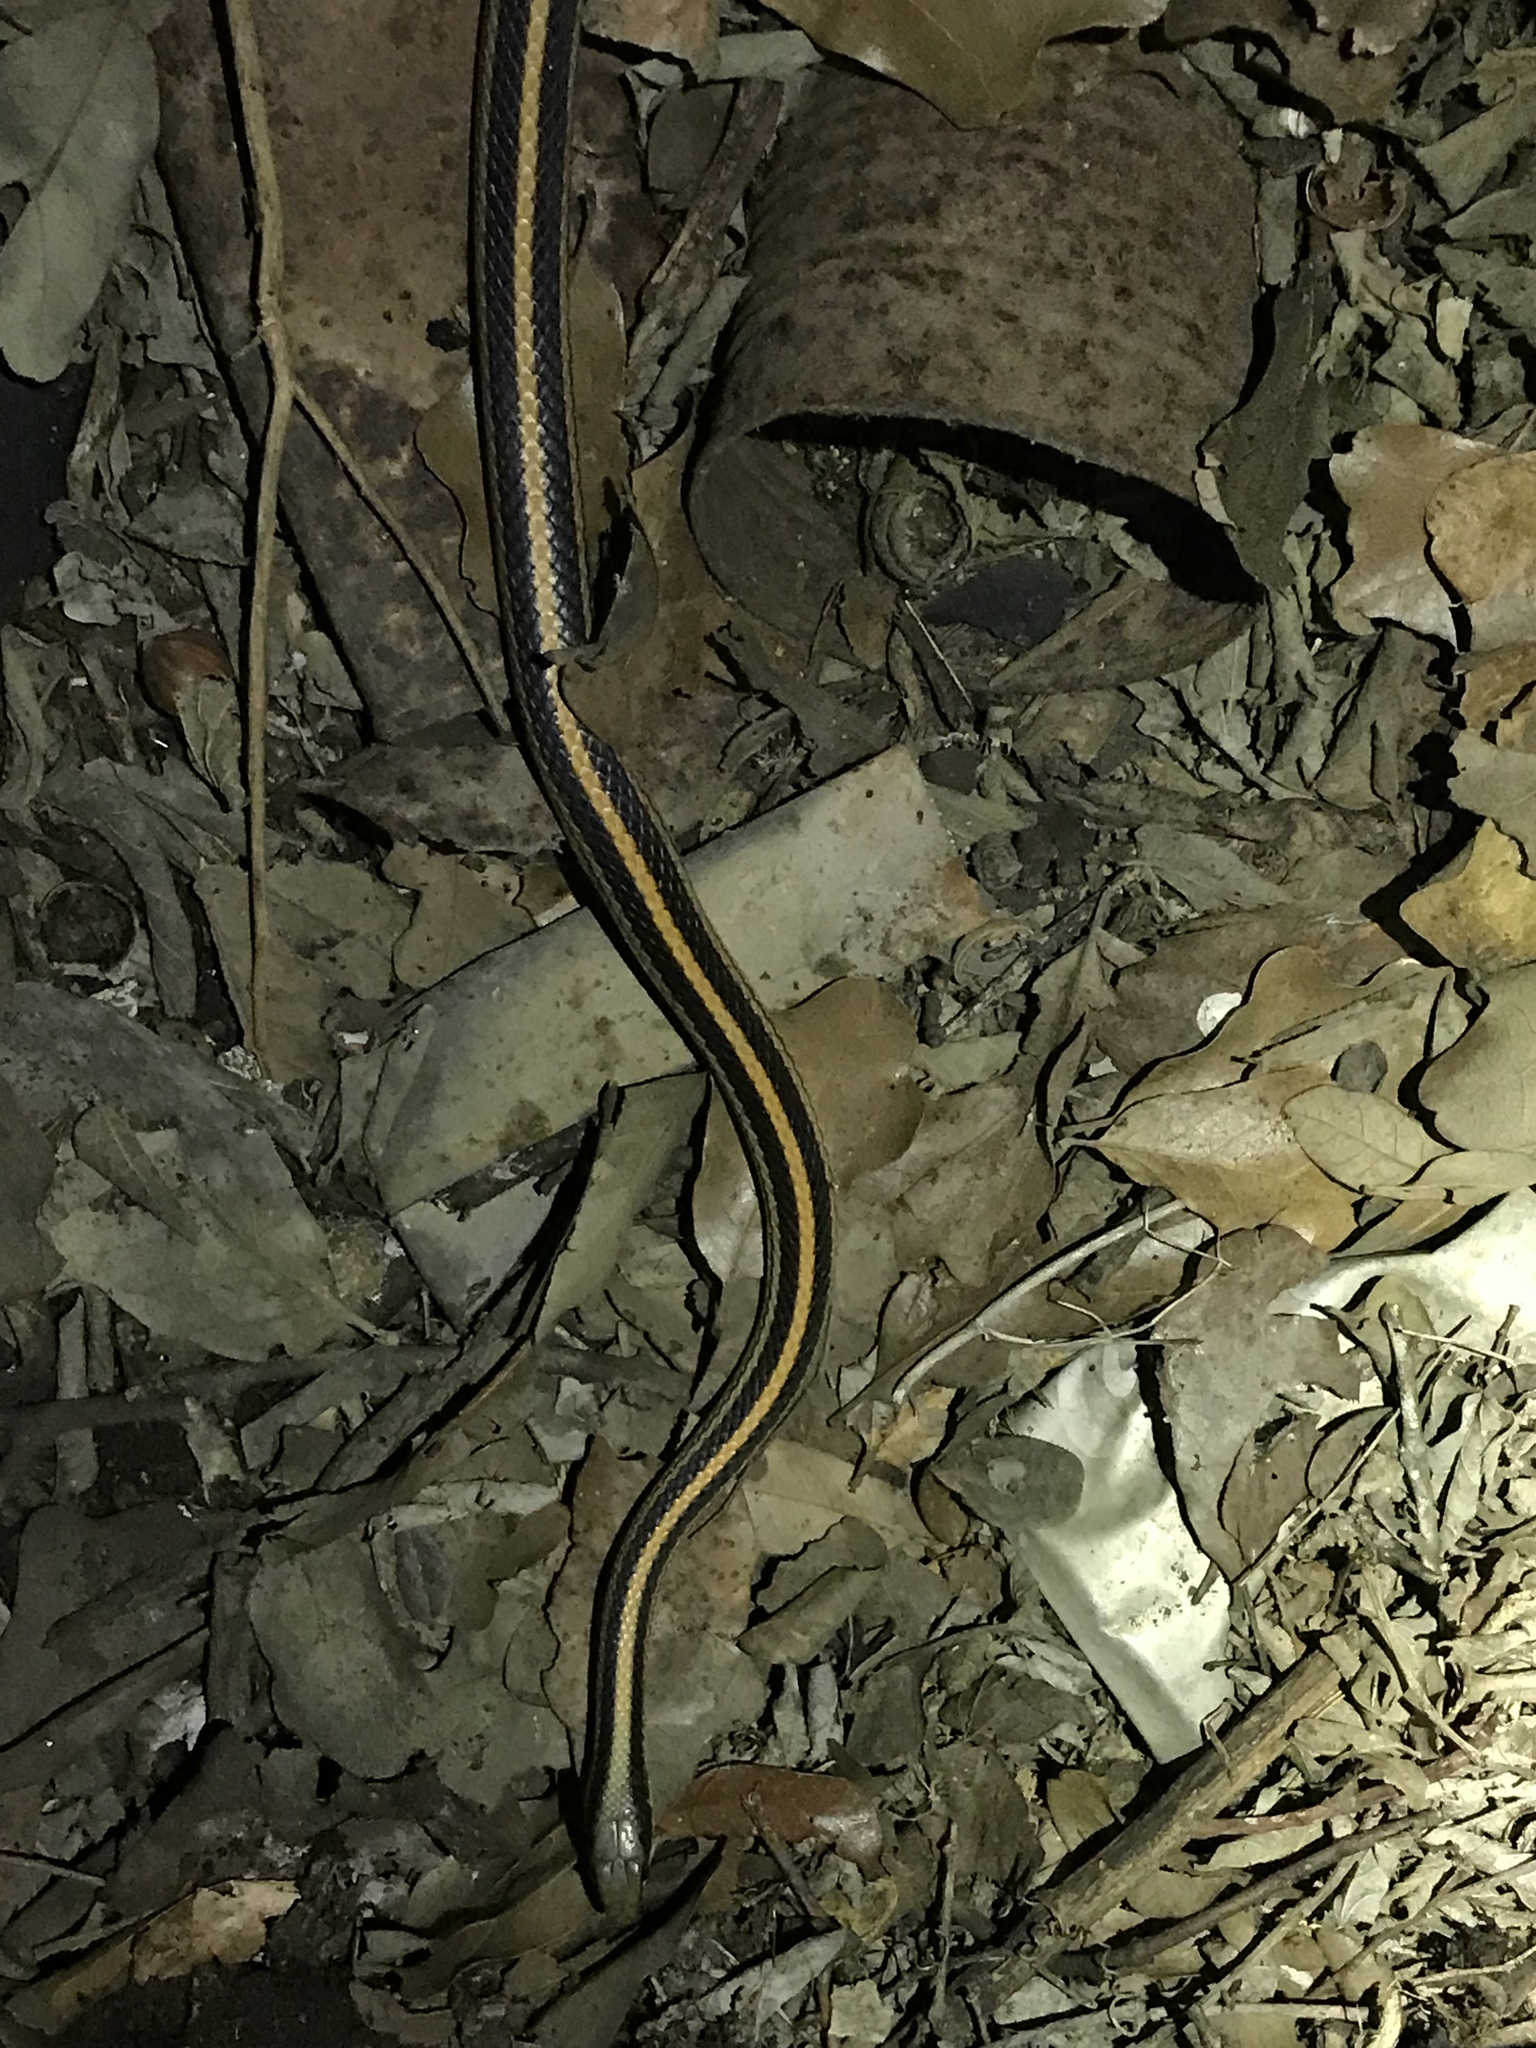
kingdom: Animalia
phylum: Chordata
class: Squamata
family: Colubridae
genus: Salvadora
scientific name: Salvadora lineata
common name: Texas patchnose snake
